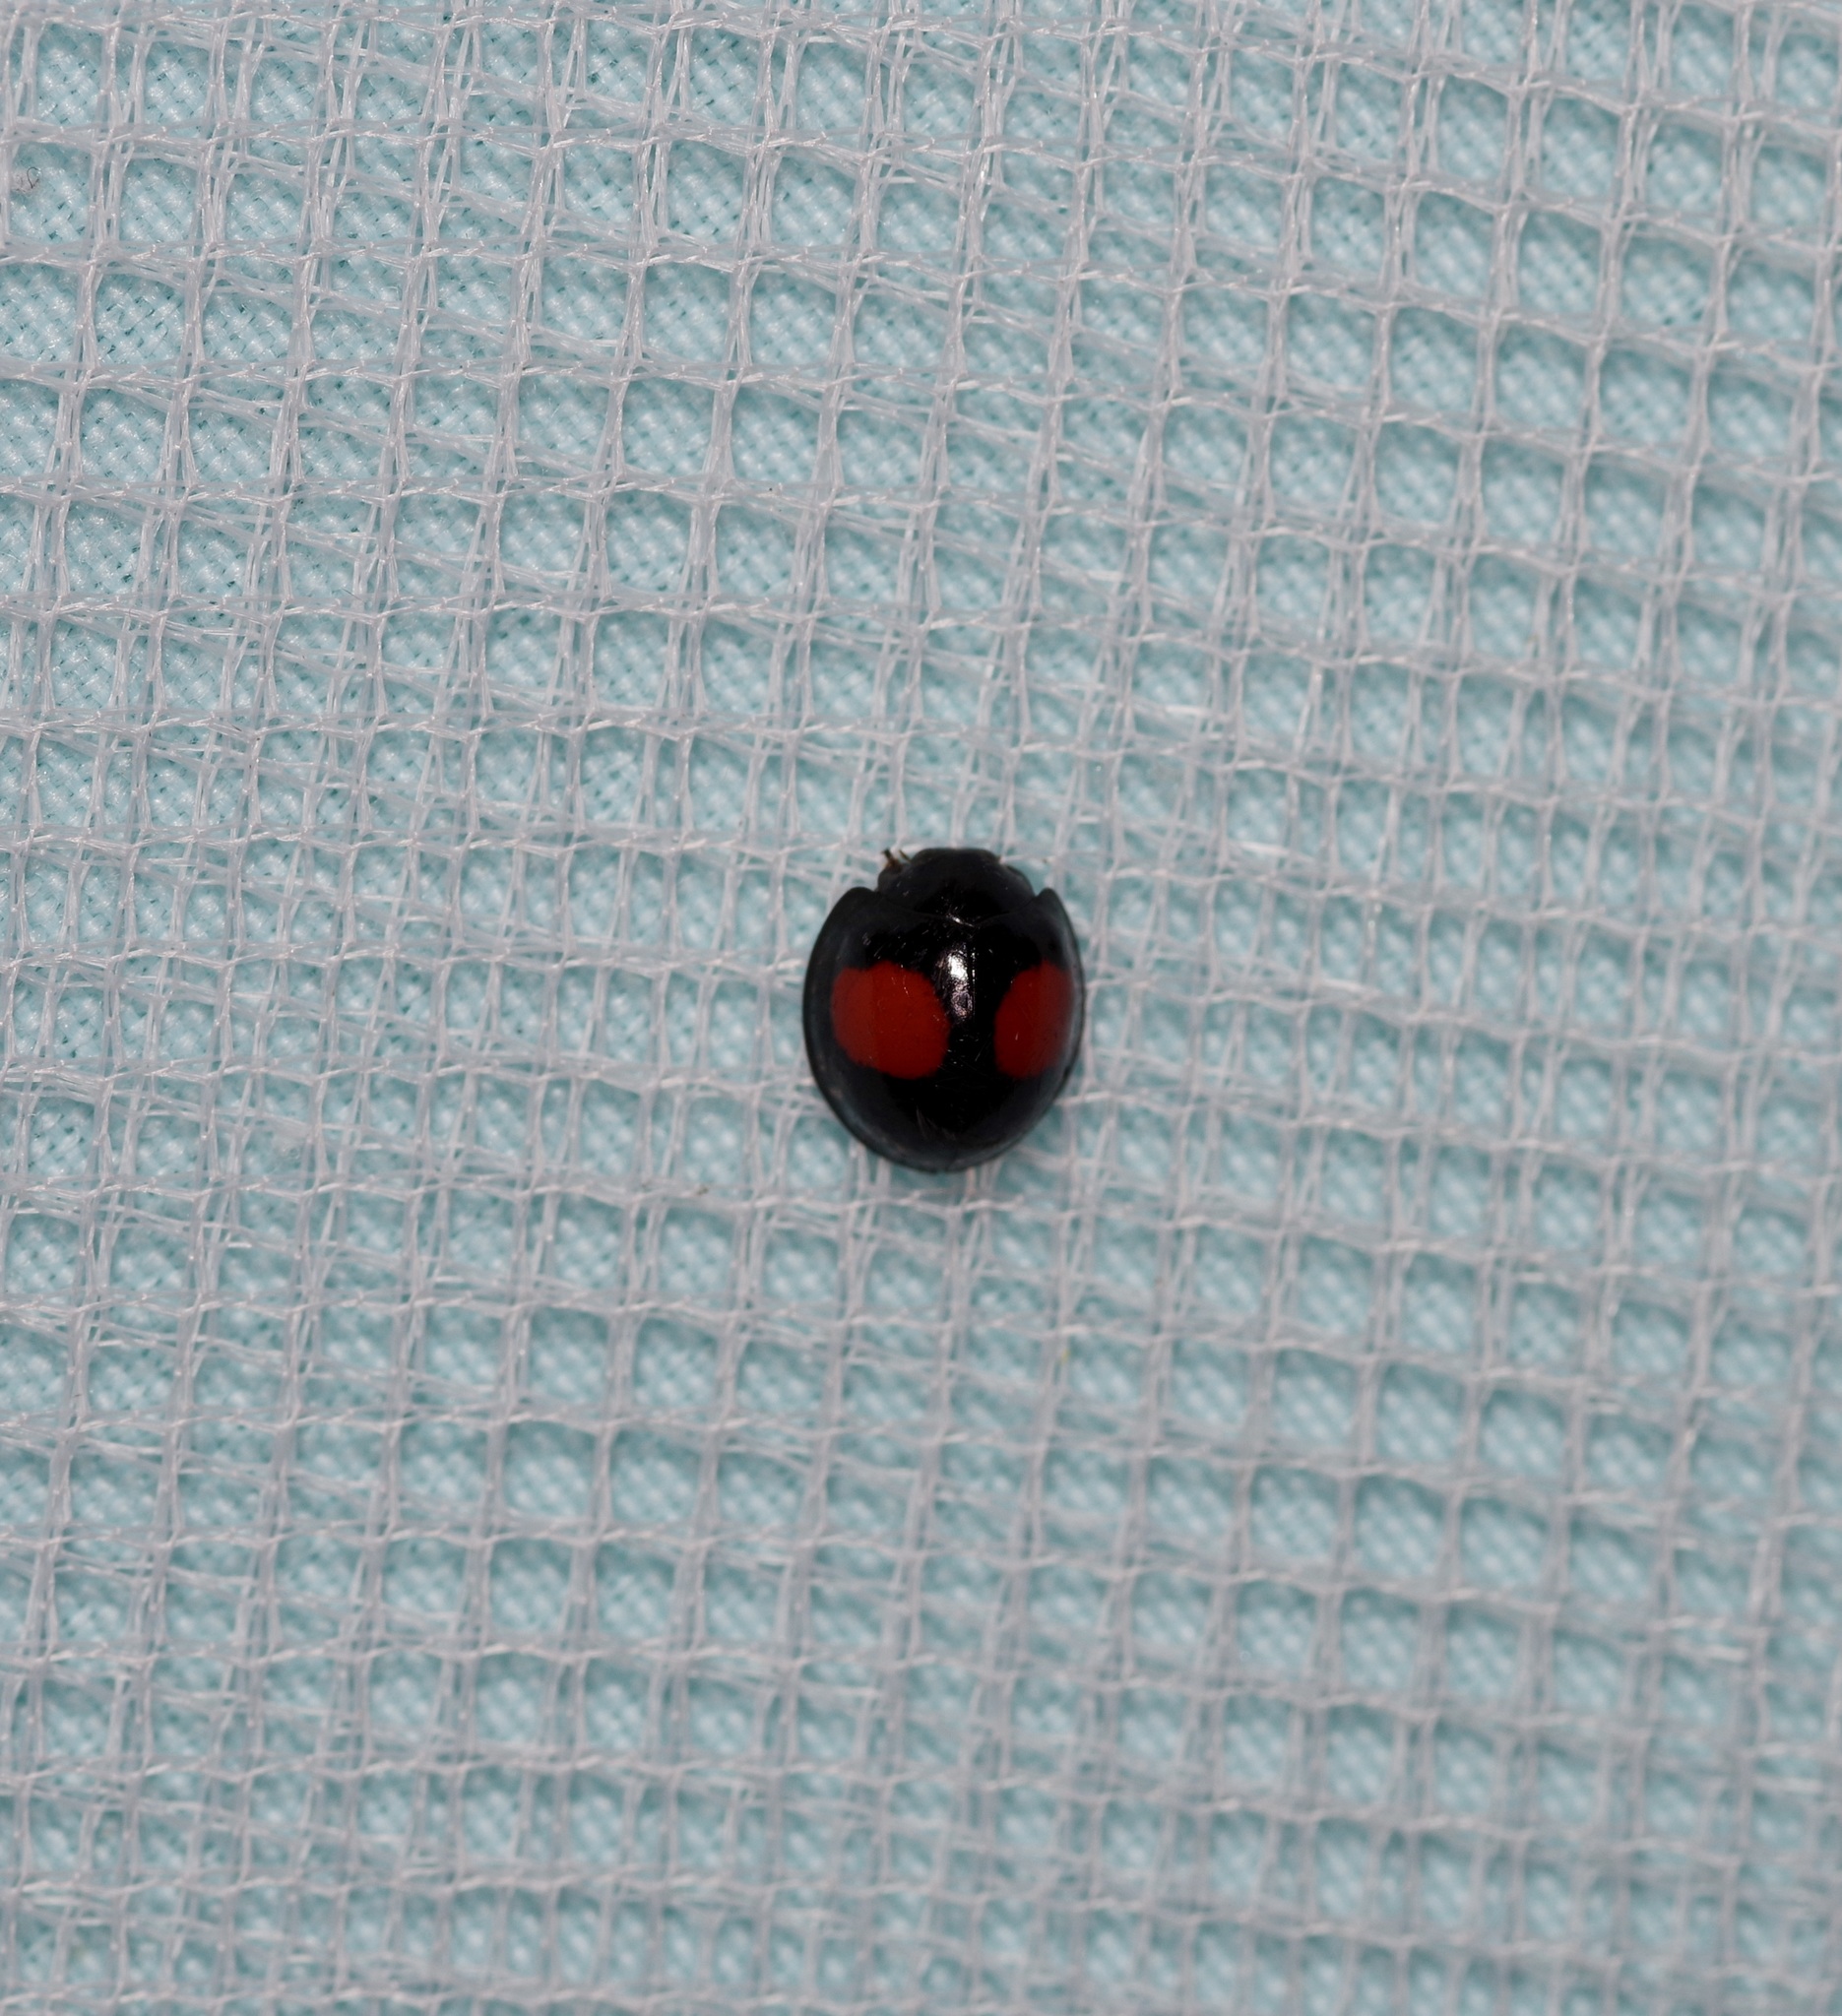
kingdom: Animalia
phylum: Arthropoda
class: Insecta
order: Coleoptera
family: Coccinellidae
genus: Chilocorus
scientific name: Chilocorus cacti
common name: Cactus lady beetle
